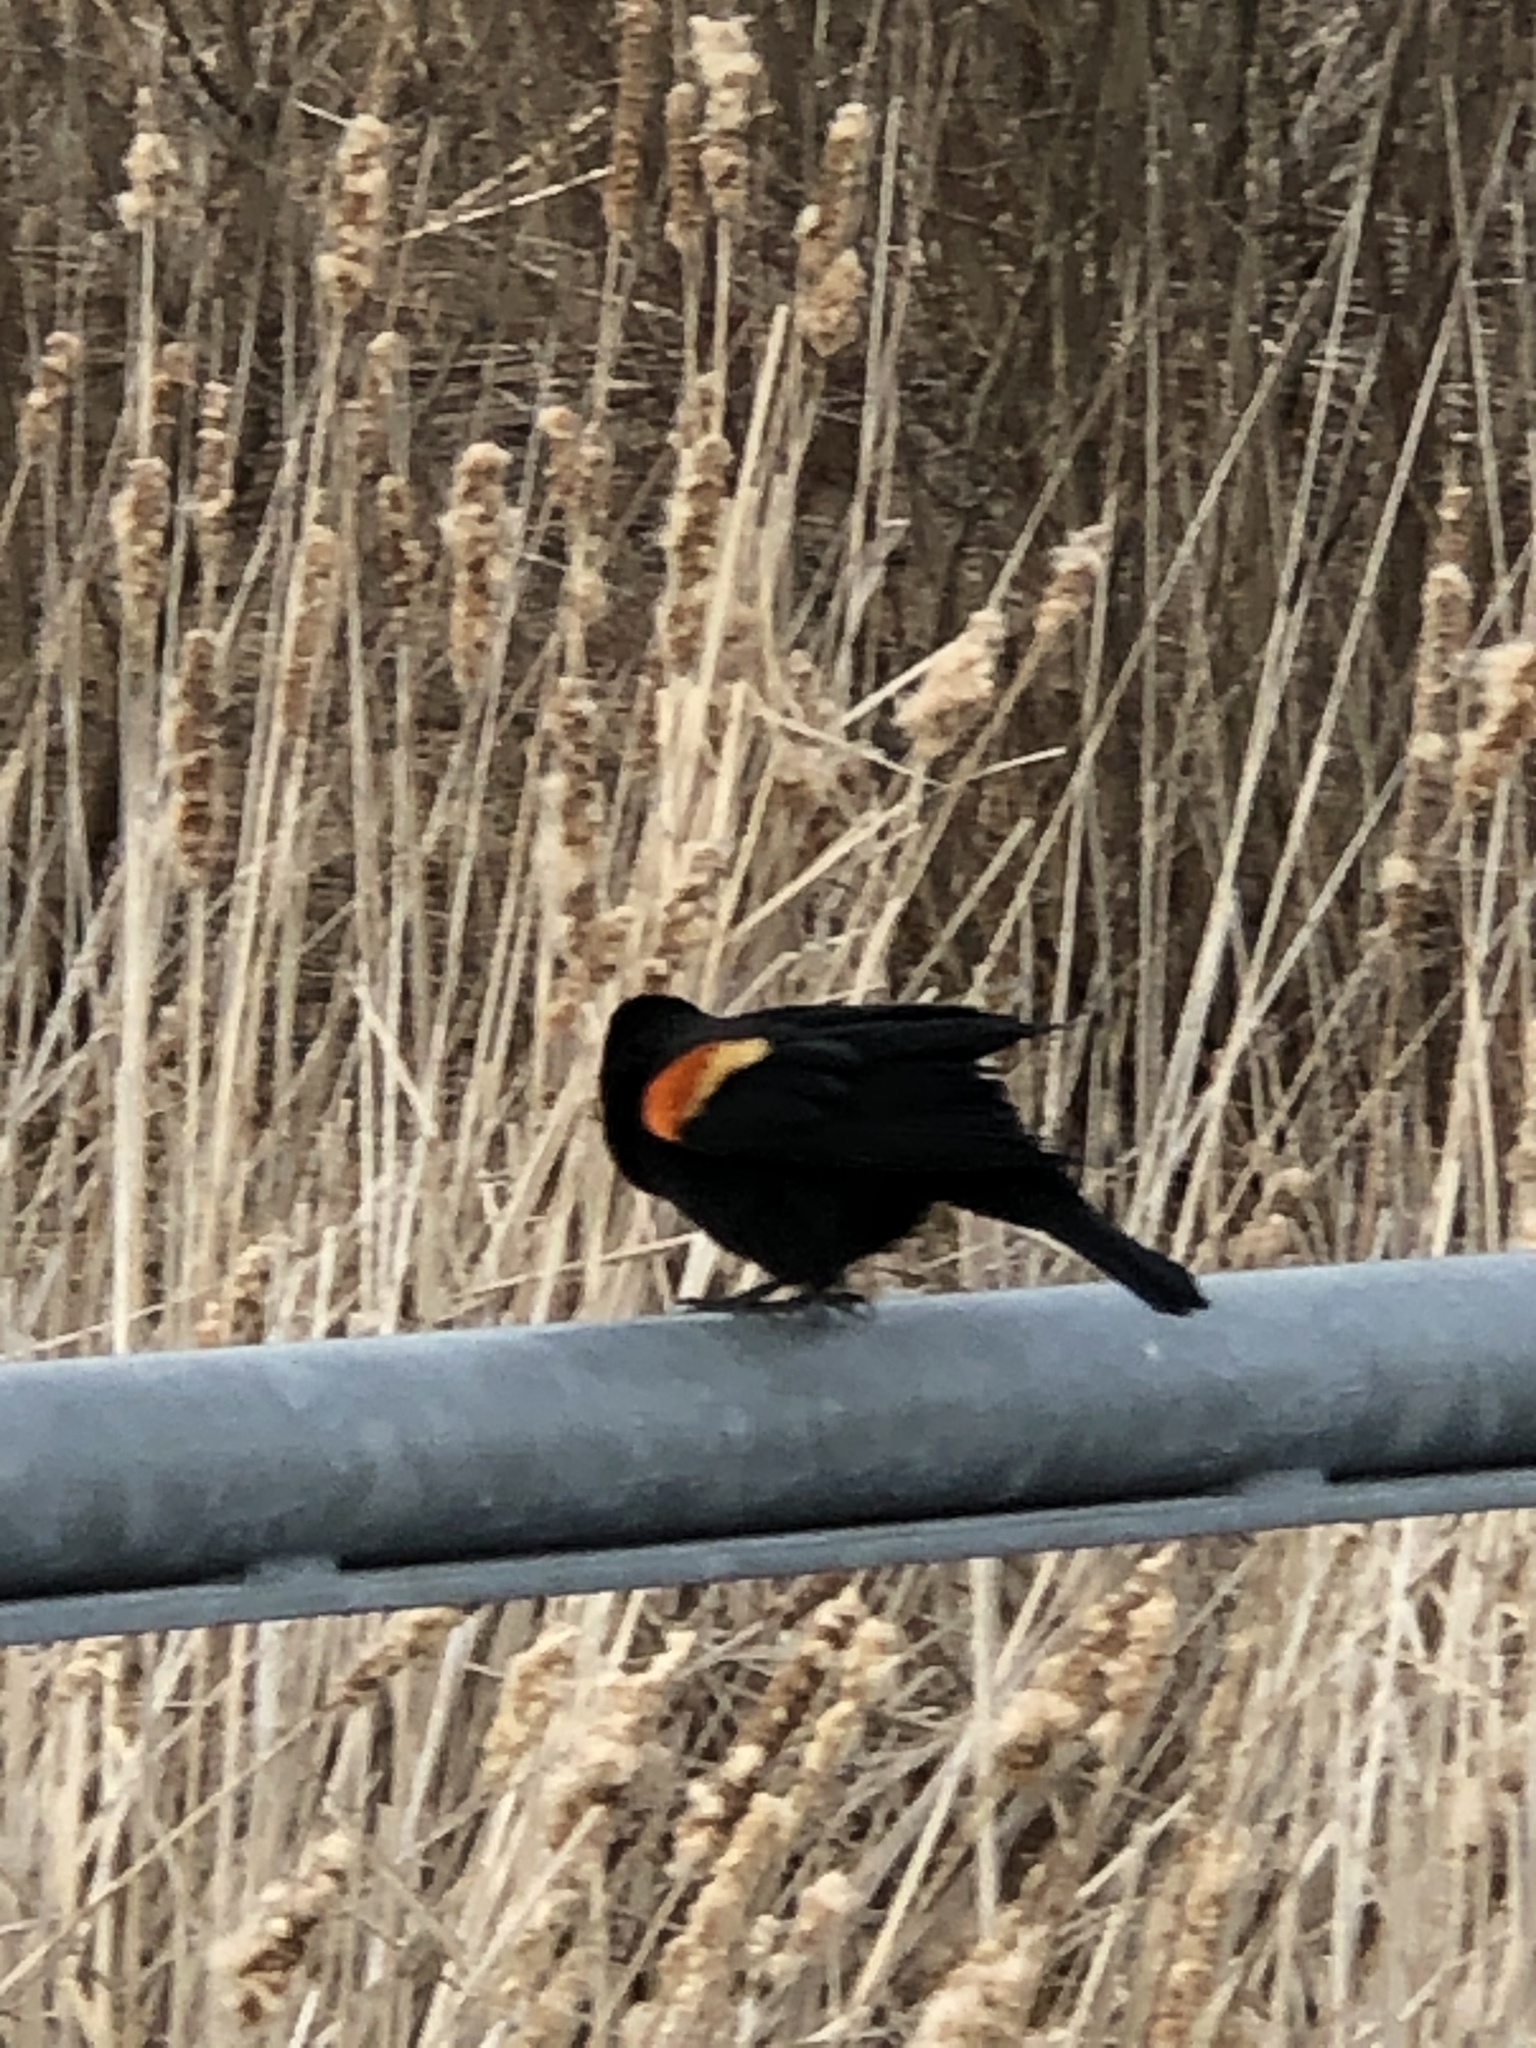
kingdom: Animalia
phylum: Chordata
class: Aves
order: Passeriformes
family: Icteridae
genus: Agelaius
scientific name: Agelaius phoeniceus
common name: Red-winged blackbird
